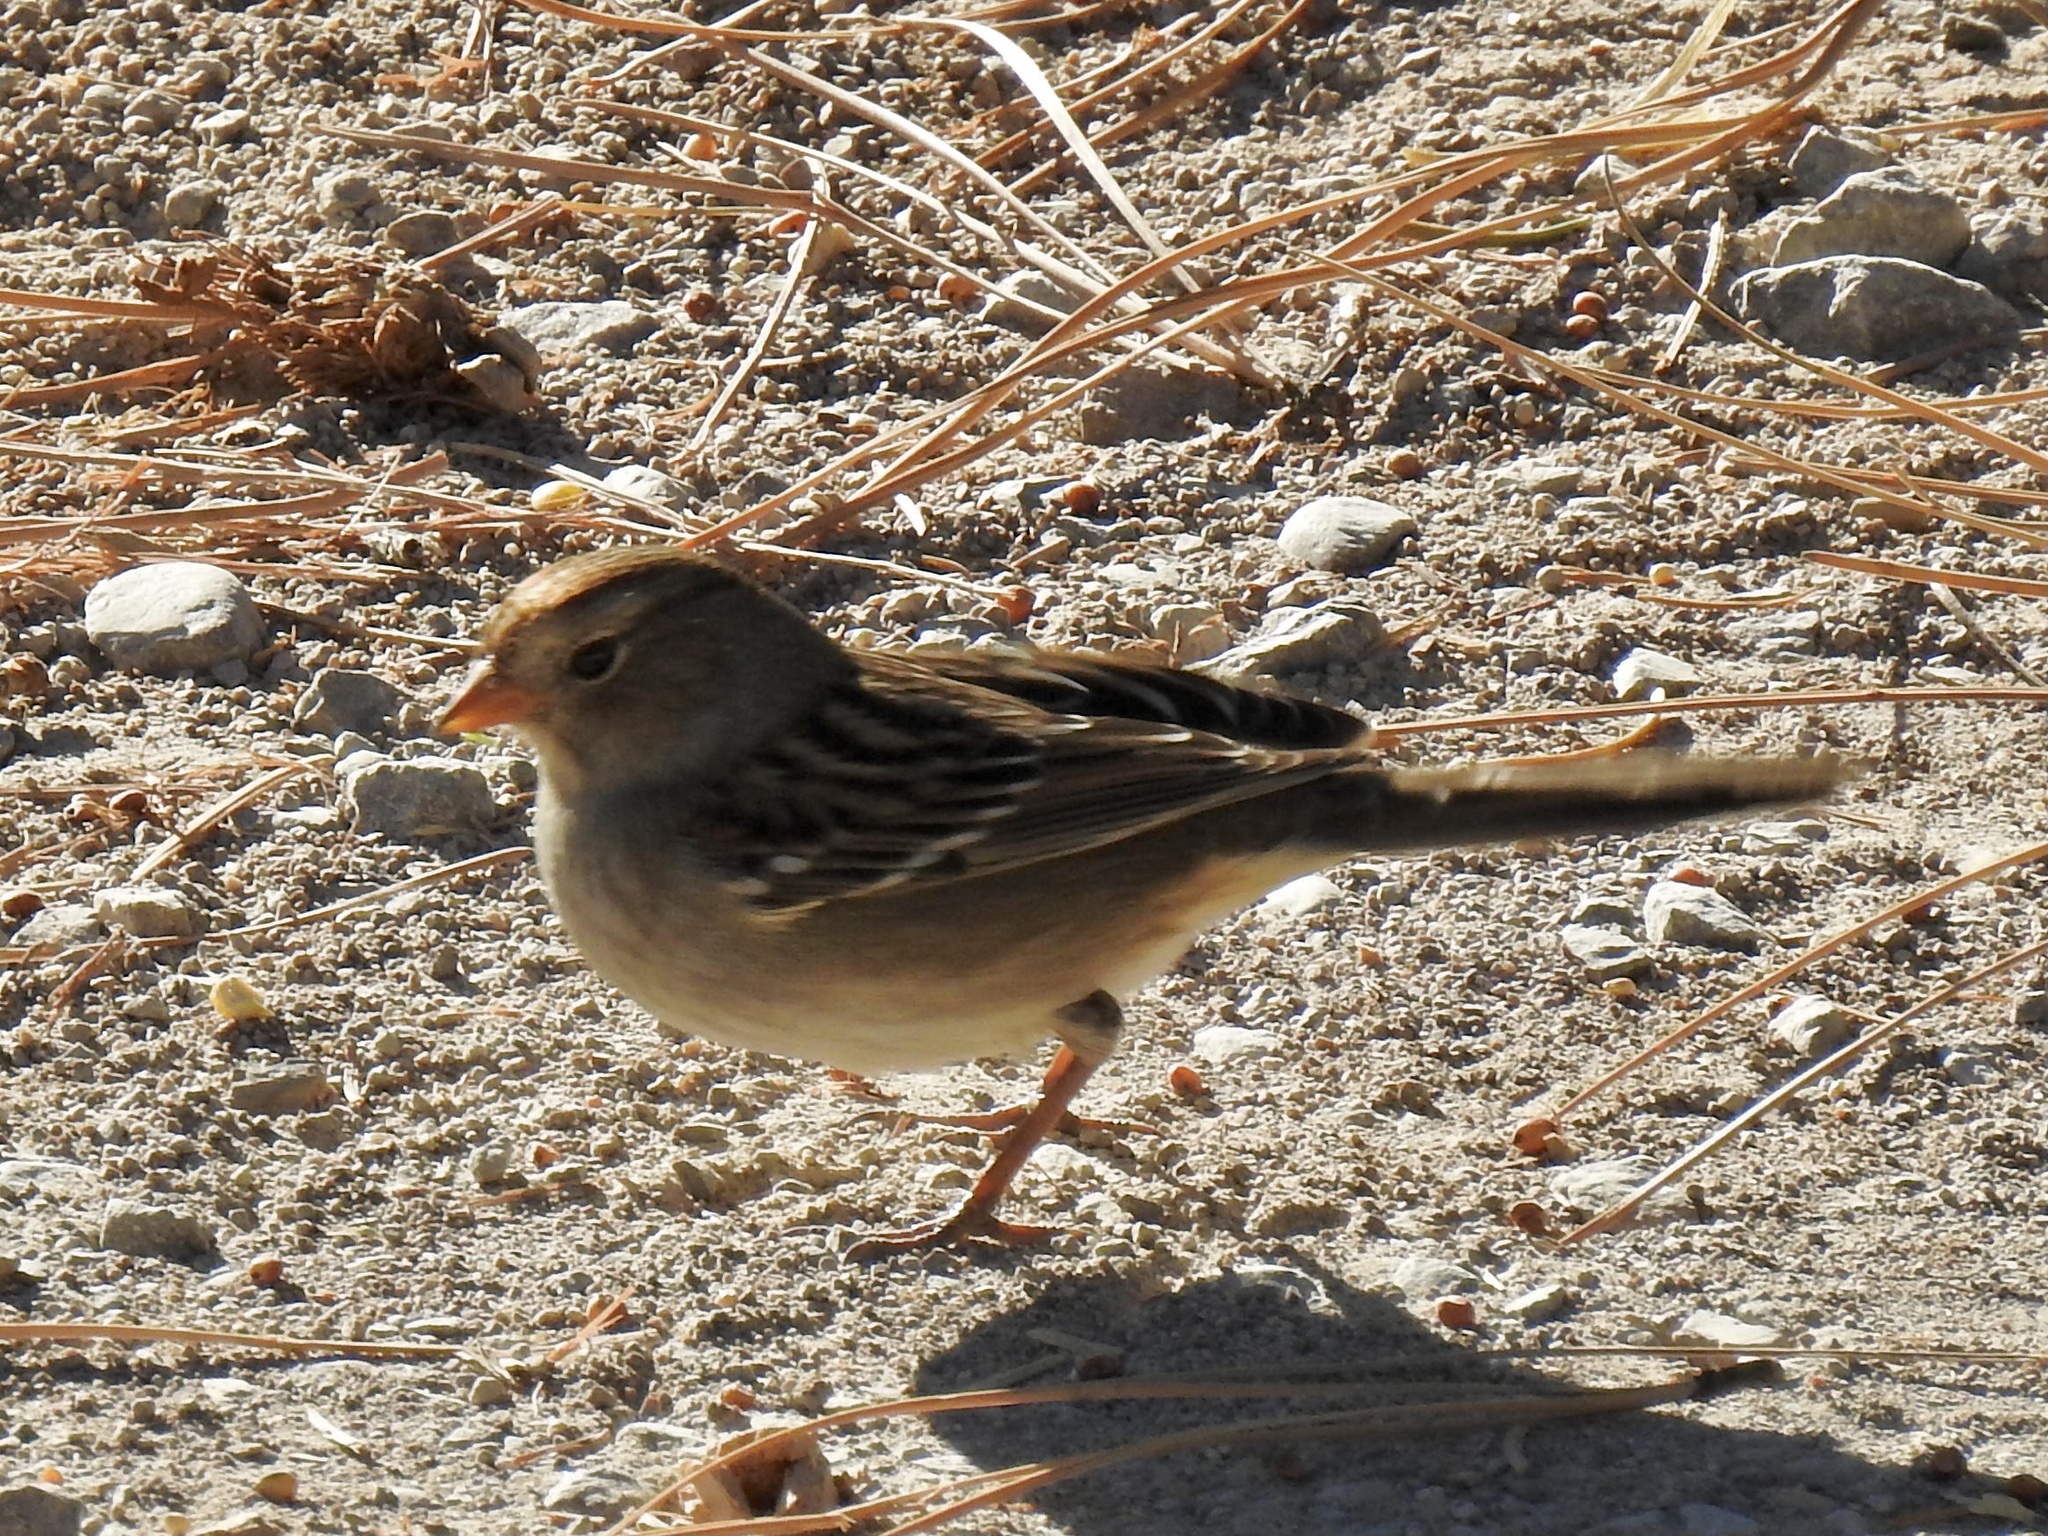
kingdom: Animalia
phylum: Chordata
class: Aves
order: Passeriformes
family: Passerellidae
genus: Zonotrichia
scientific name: Zonotrichia leucophrys
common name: White-crowned sparrow
